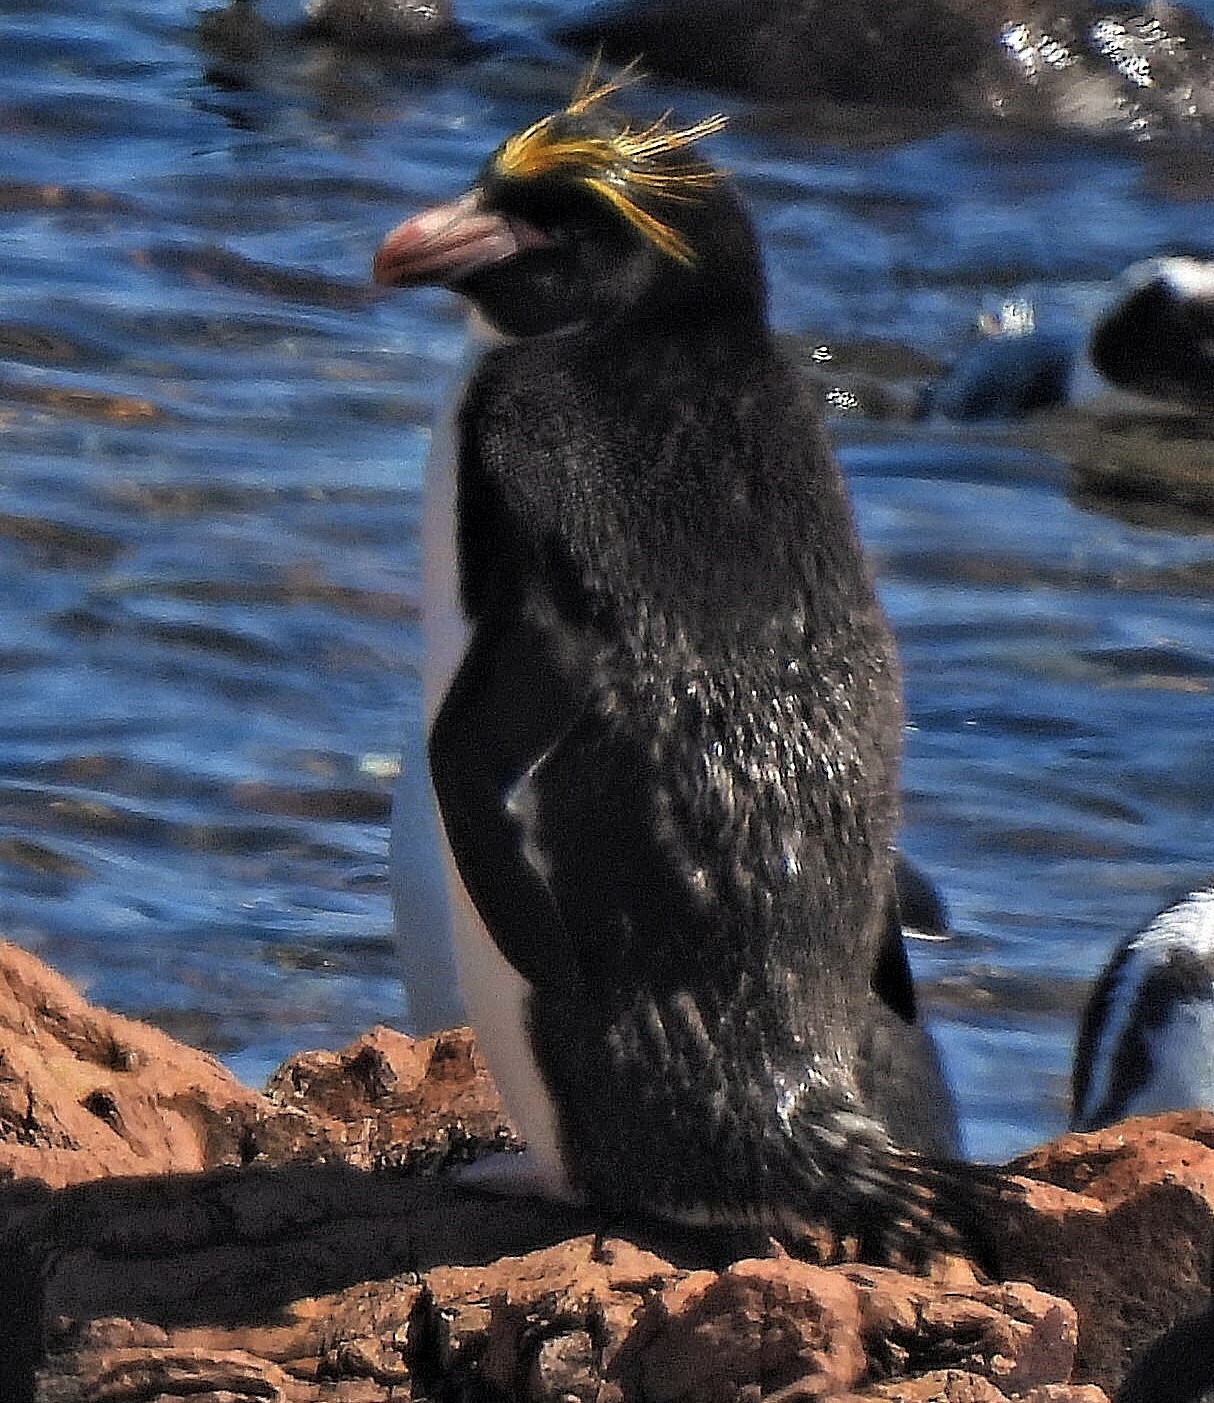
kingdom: Animalia
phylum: Chordata
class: Aves
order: Sphenisciformes
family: Spheniscidae
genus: Eudyptes
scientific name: Eudyptes chrysolophus
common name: Macaroni penguin
